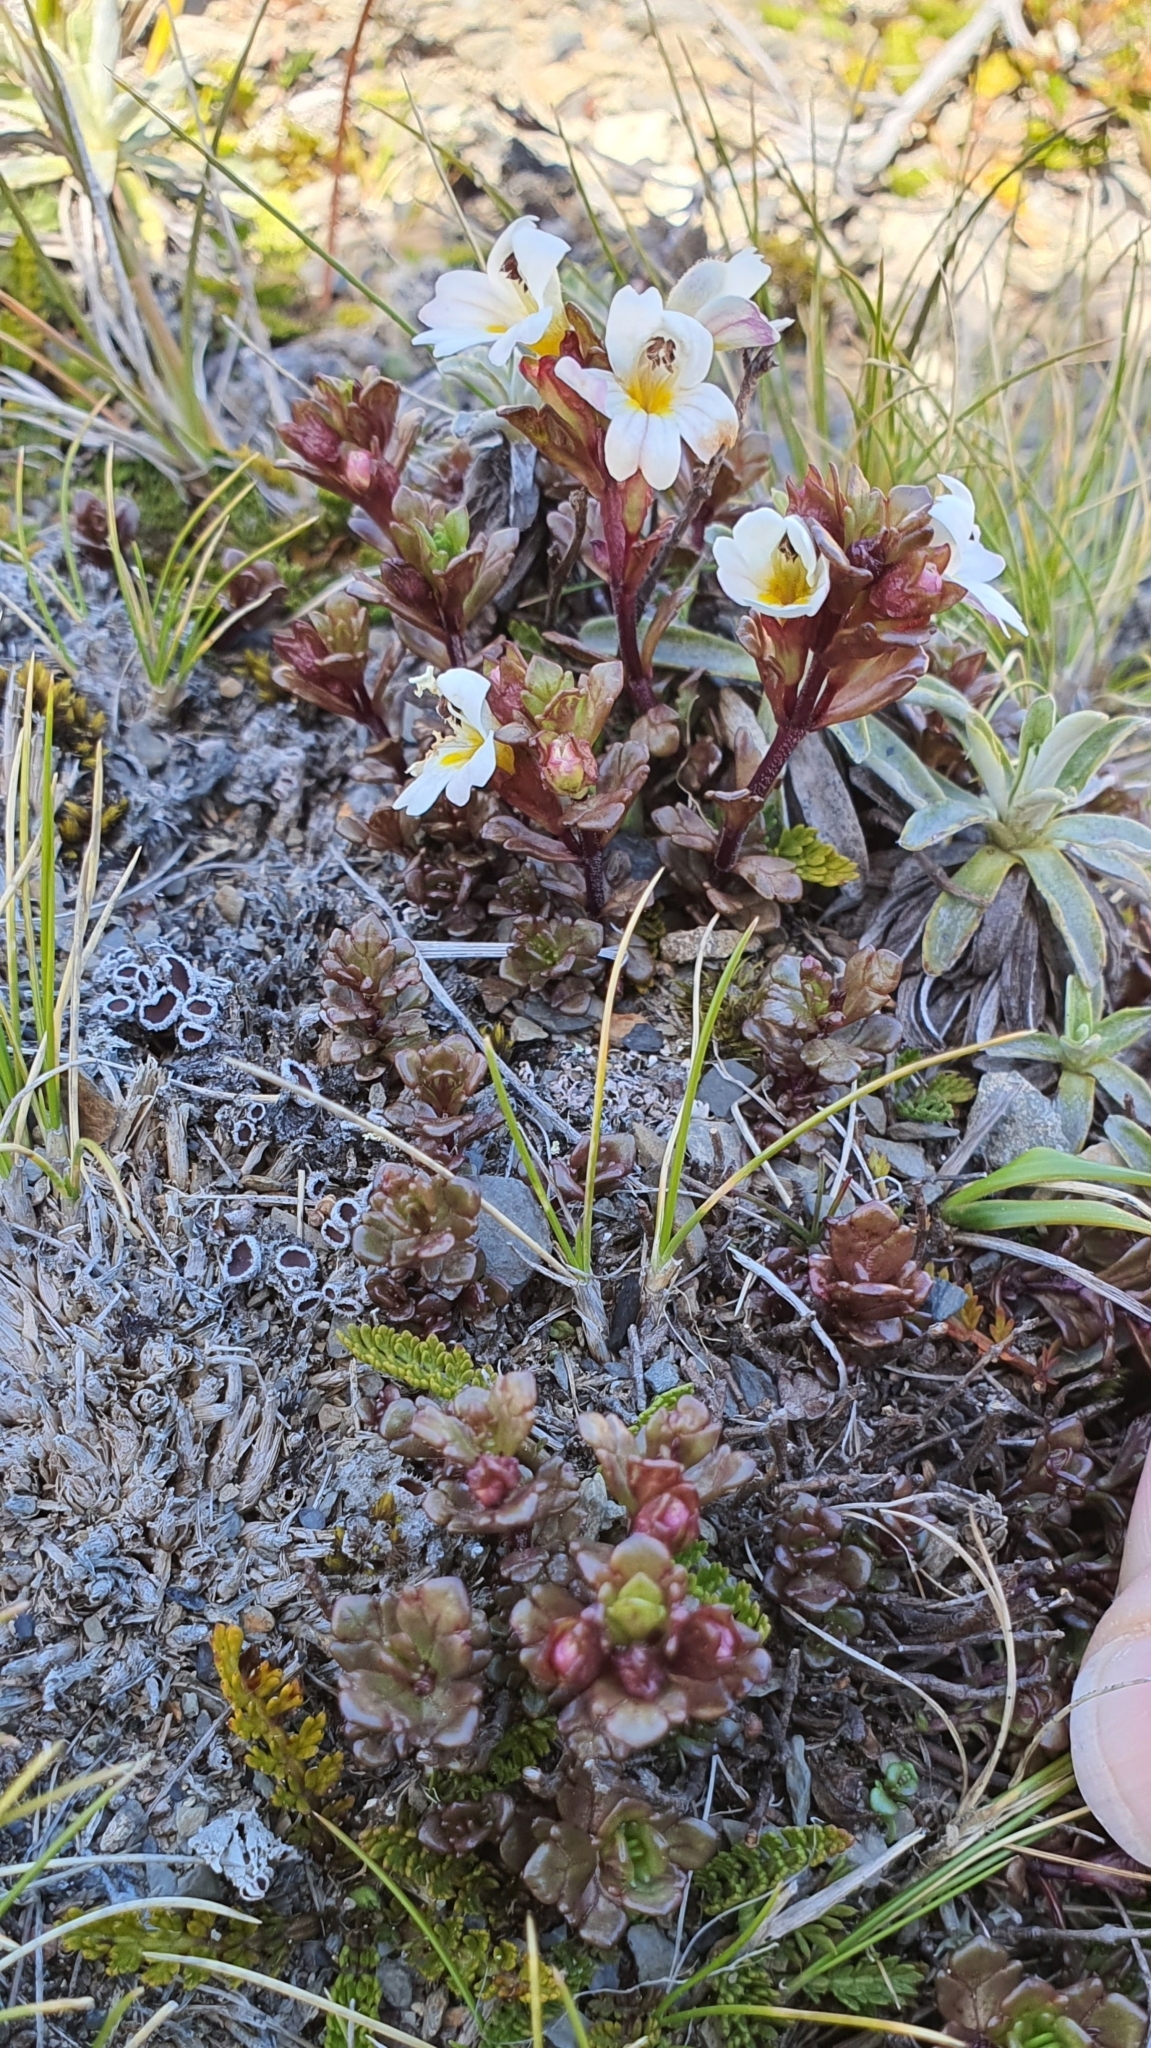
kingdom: Plantae
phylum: Tracheophyta
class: Magnoliopsida
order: Lamiales
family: Orobanchaceae
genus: Euphrasia
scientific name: Euphrasia laingii
